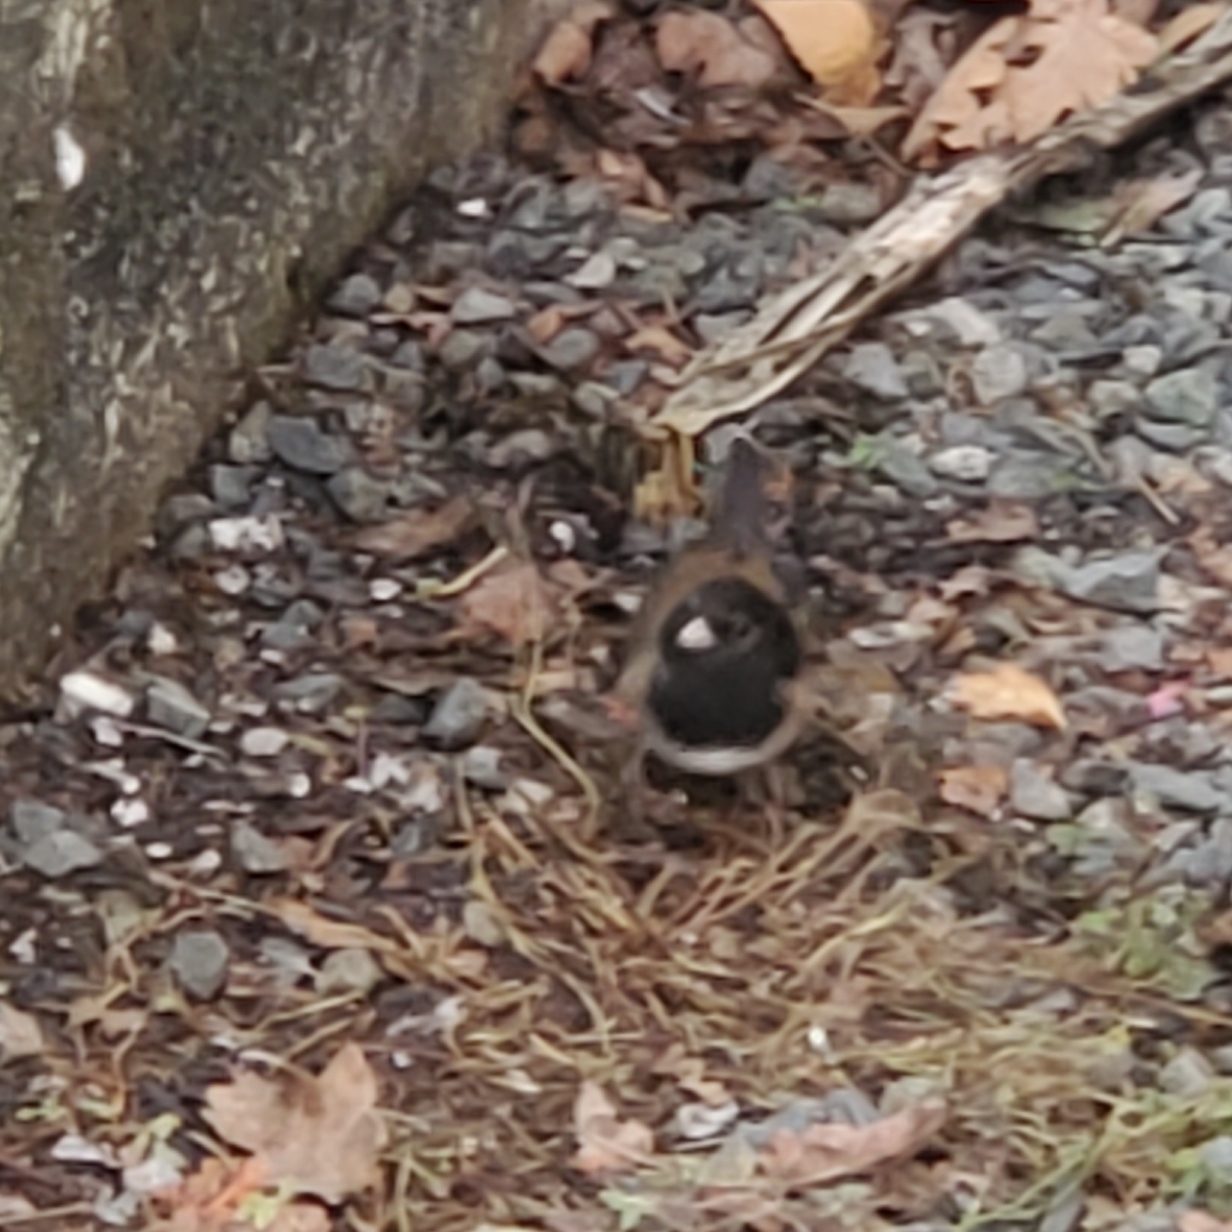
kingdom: Animalia
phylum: Chordata
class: Aves
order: Passeriformes
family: Passerellidae
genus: Junco
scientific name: Junco hyemalis
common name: Dark-eyed junco
